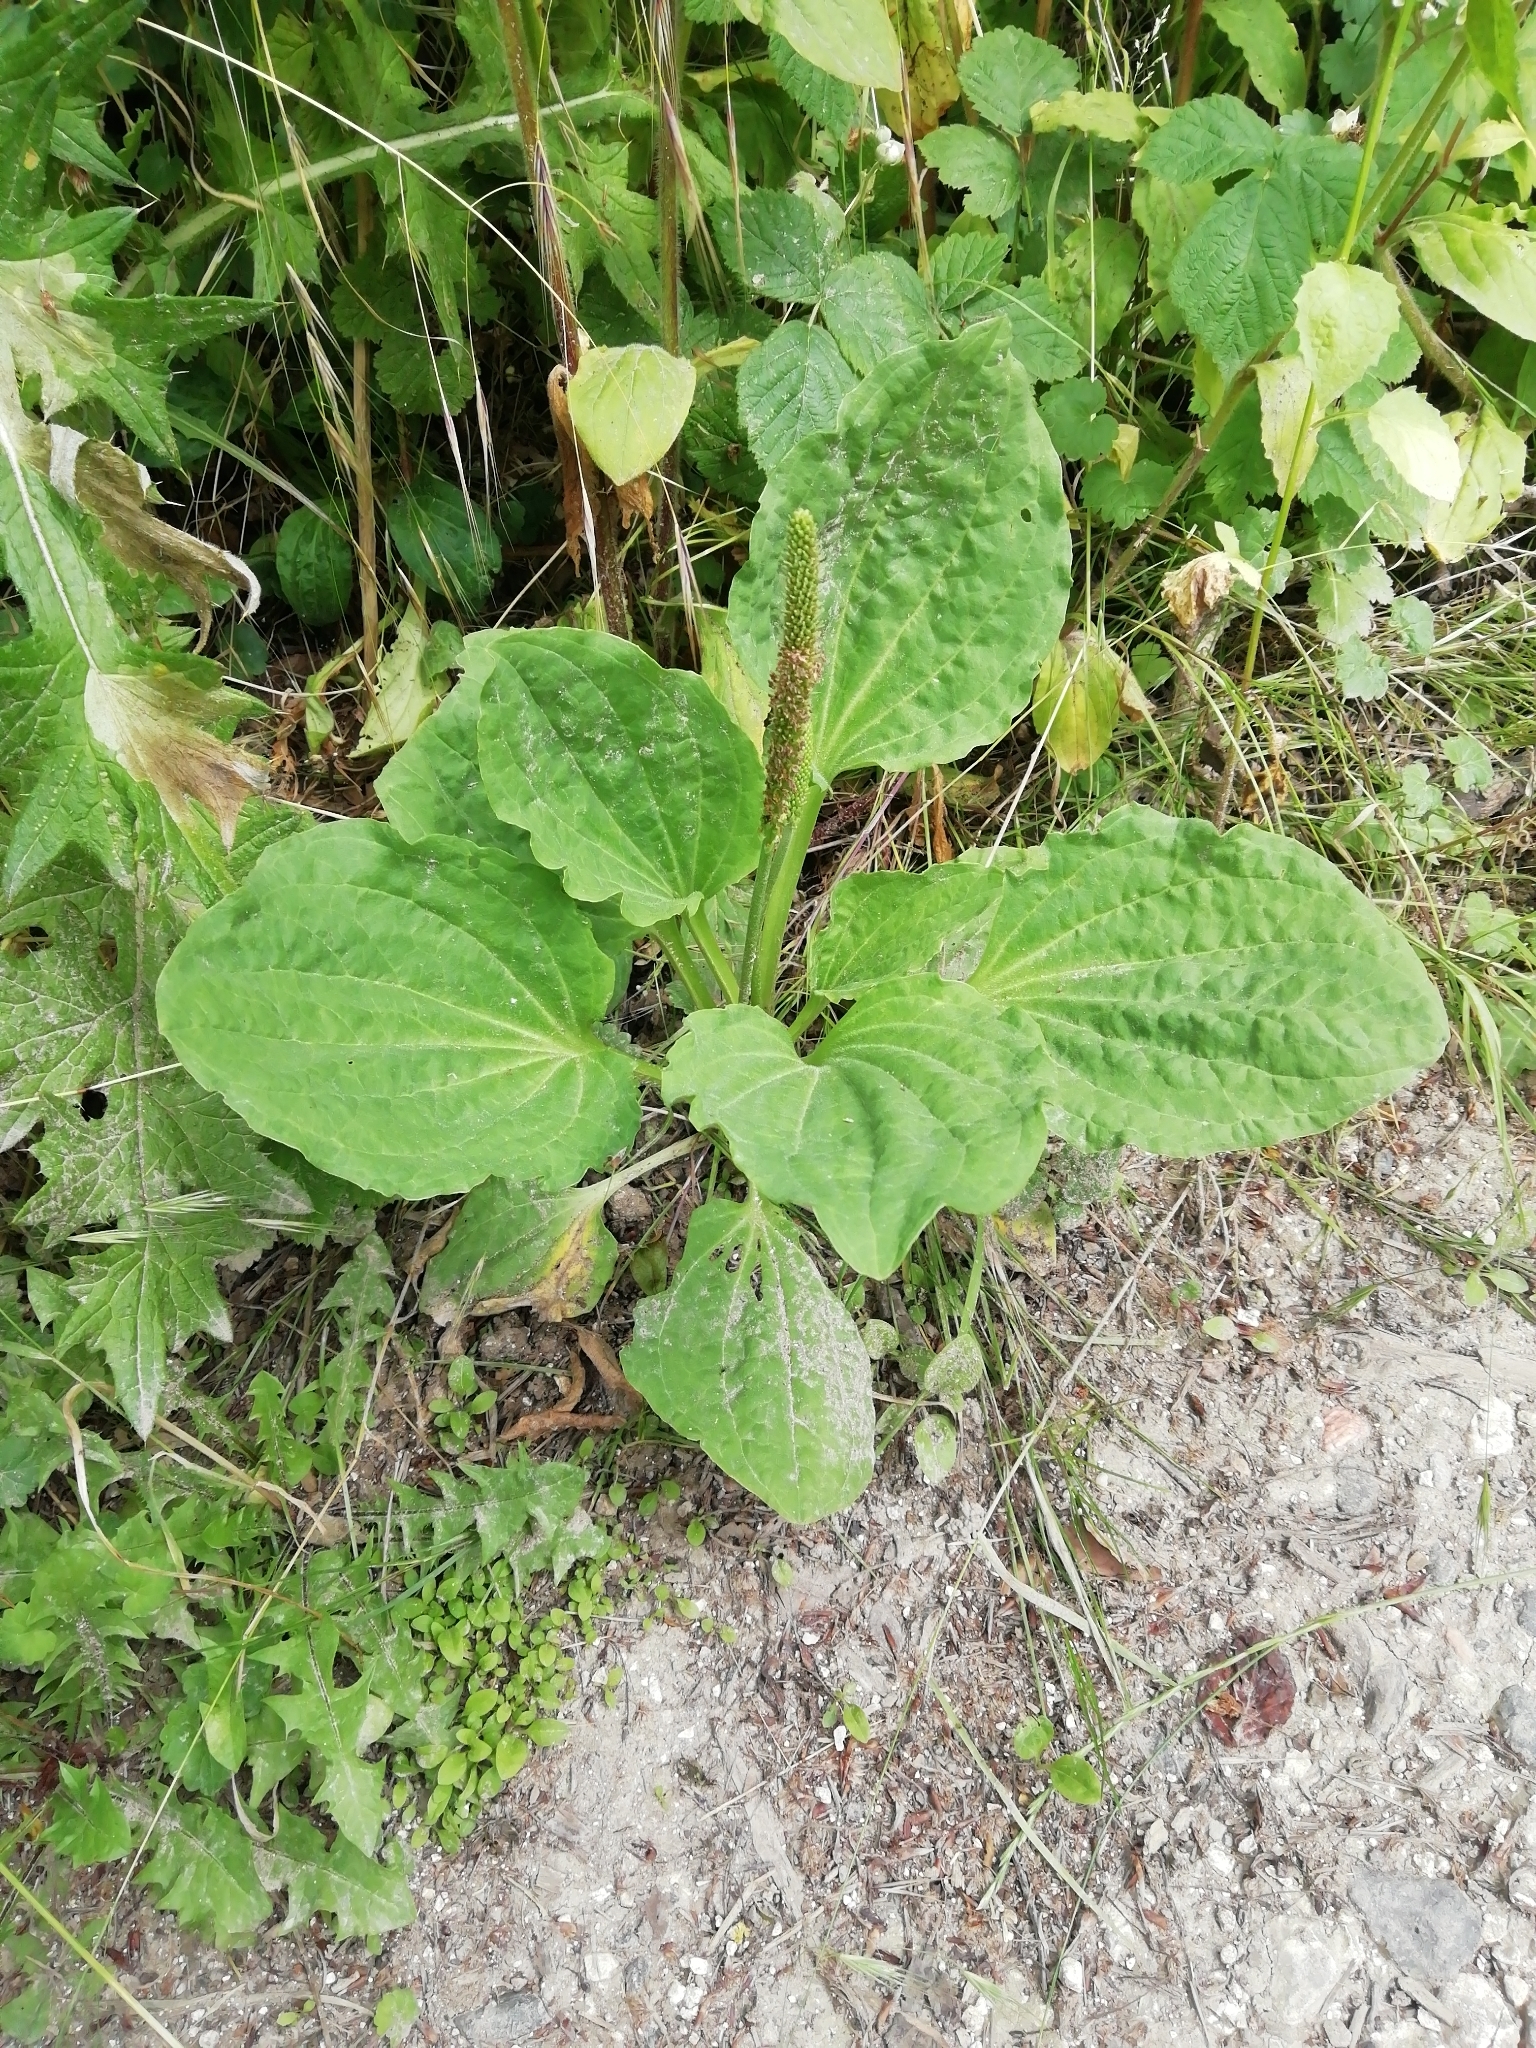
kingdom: Plantae
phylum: Tracheophyta
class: Magnoliopsida
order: Lamiales
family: Plantaginaceae
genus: Plantago
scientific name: Plantago major
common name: Common plantain
